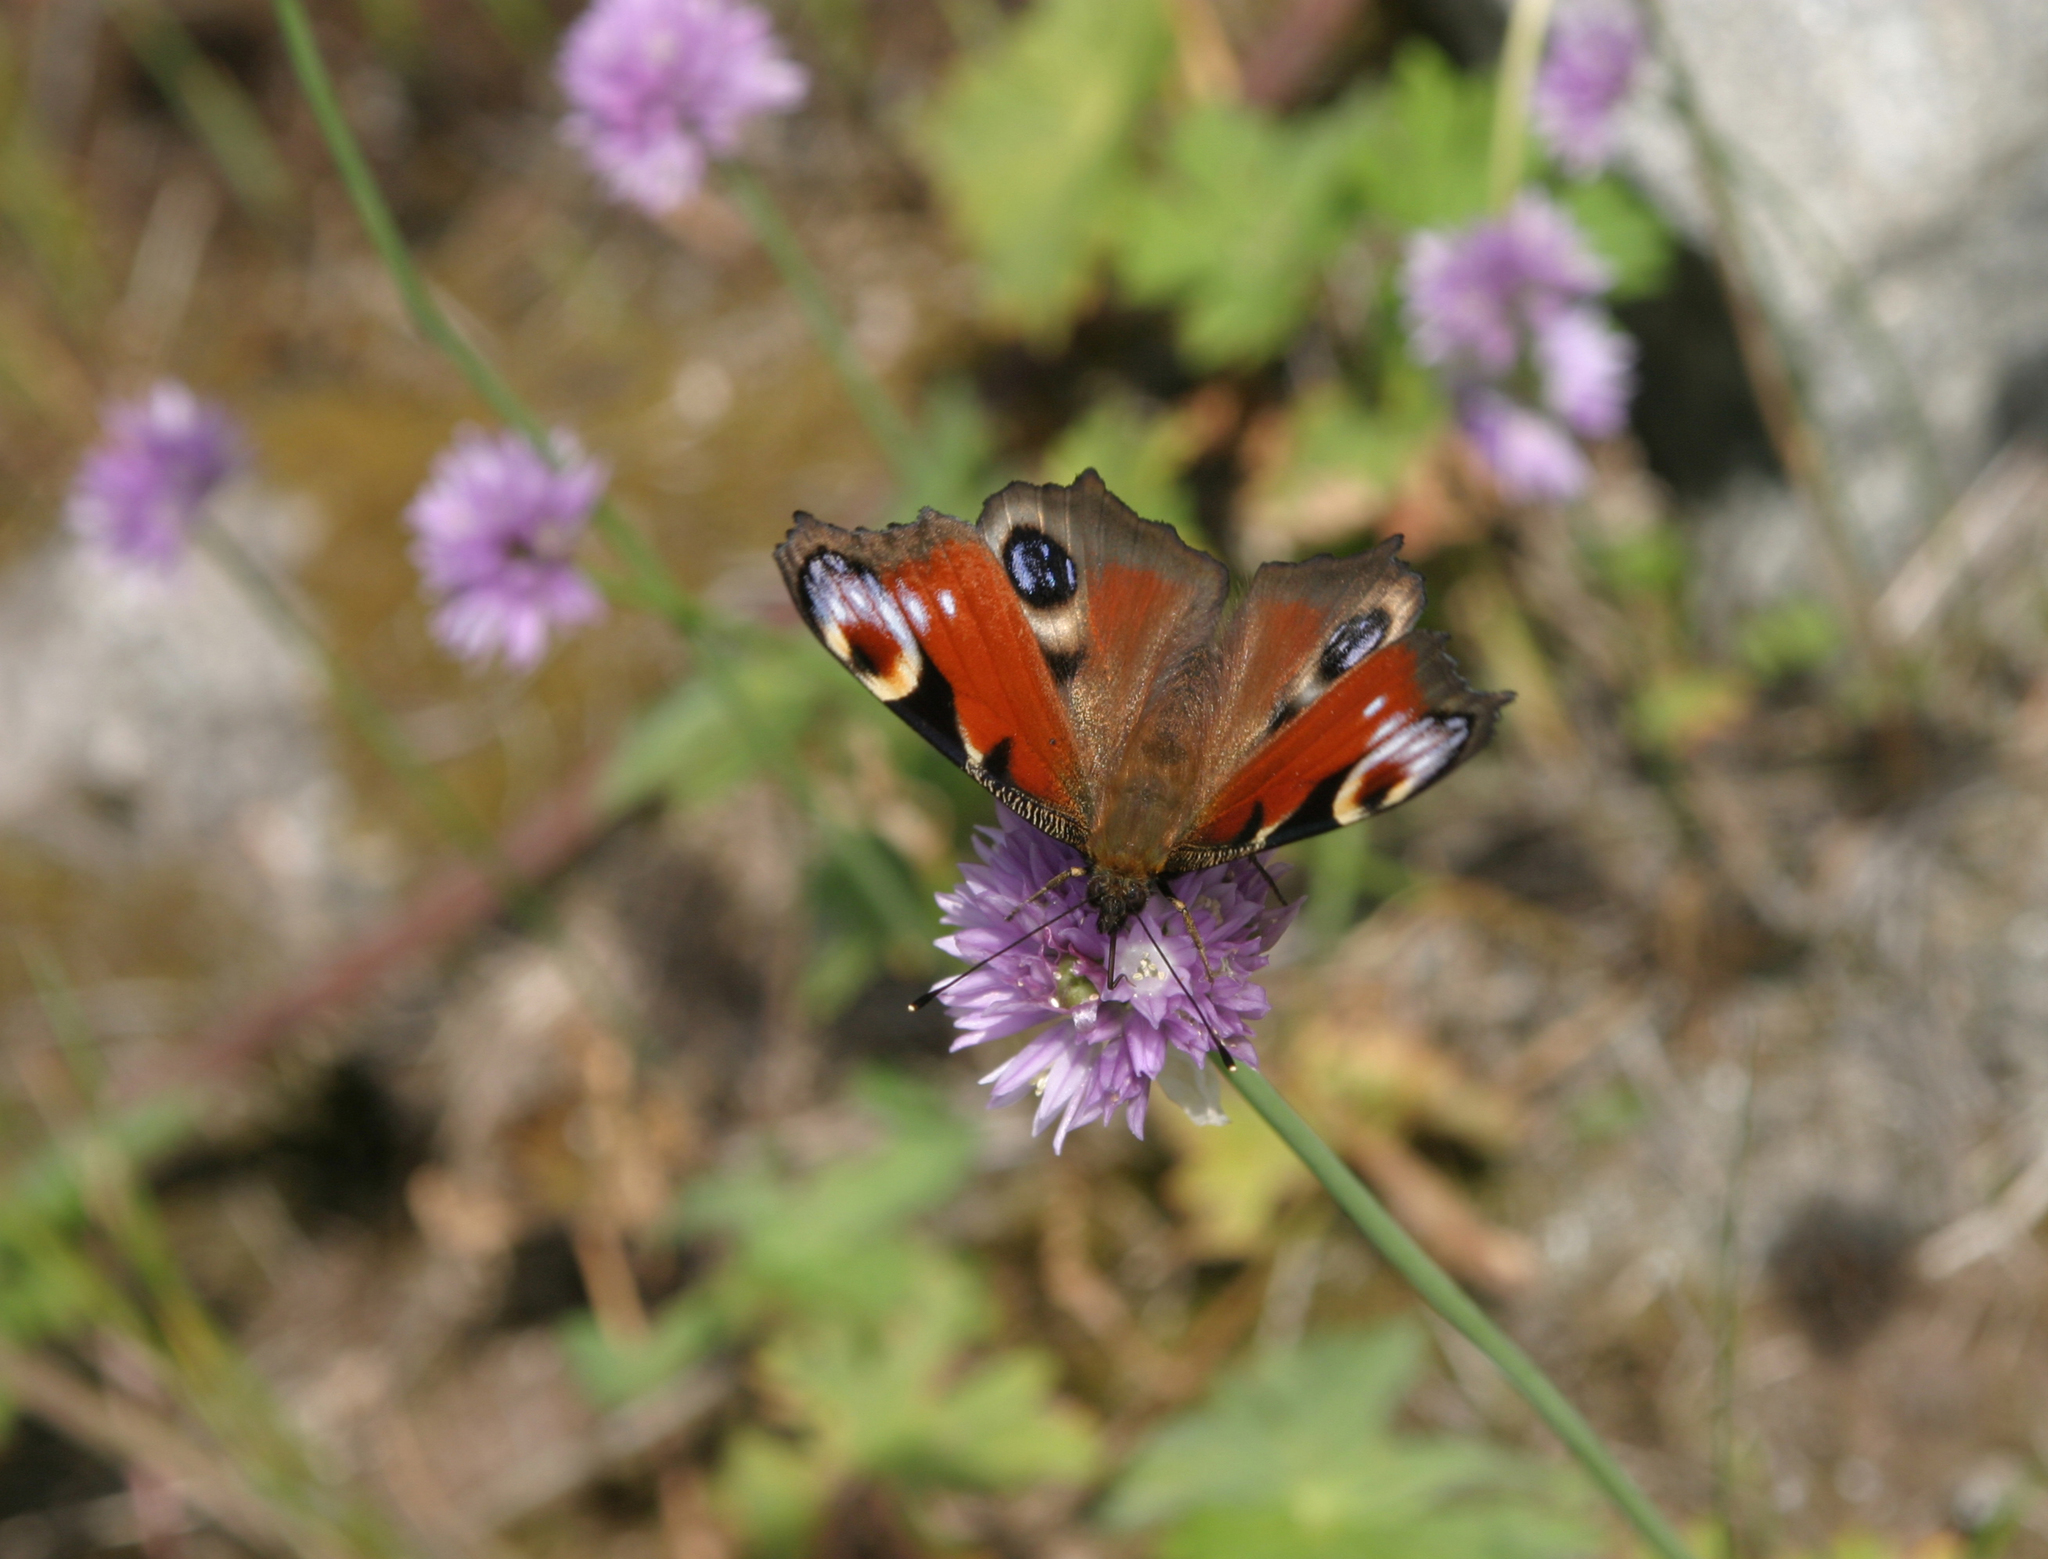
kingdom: Plantae
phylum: Tracheophyta
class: Liliopsida
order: Asparagales
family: Amaryllidaceae
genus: Allium
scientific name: Allium schoenoprasoides
